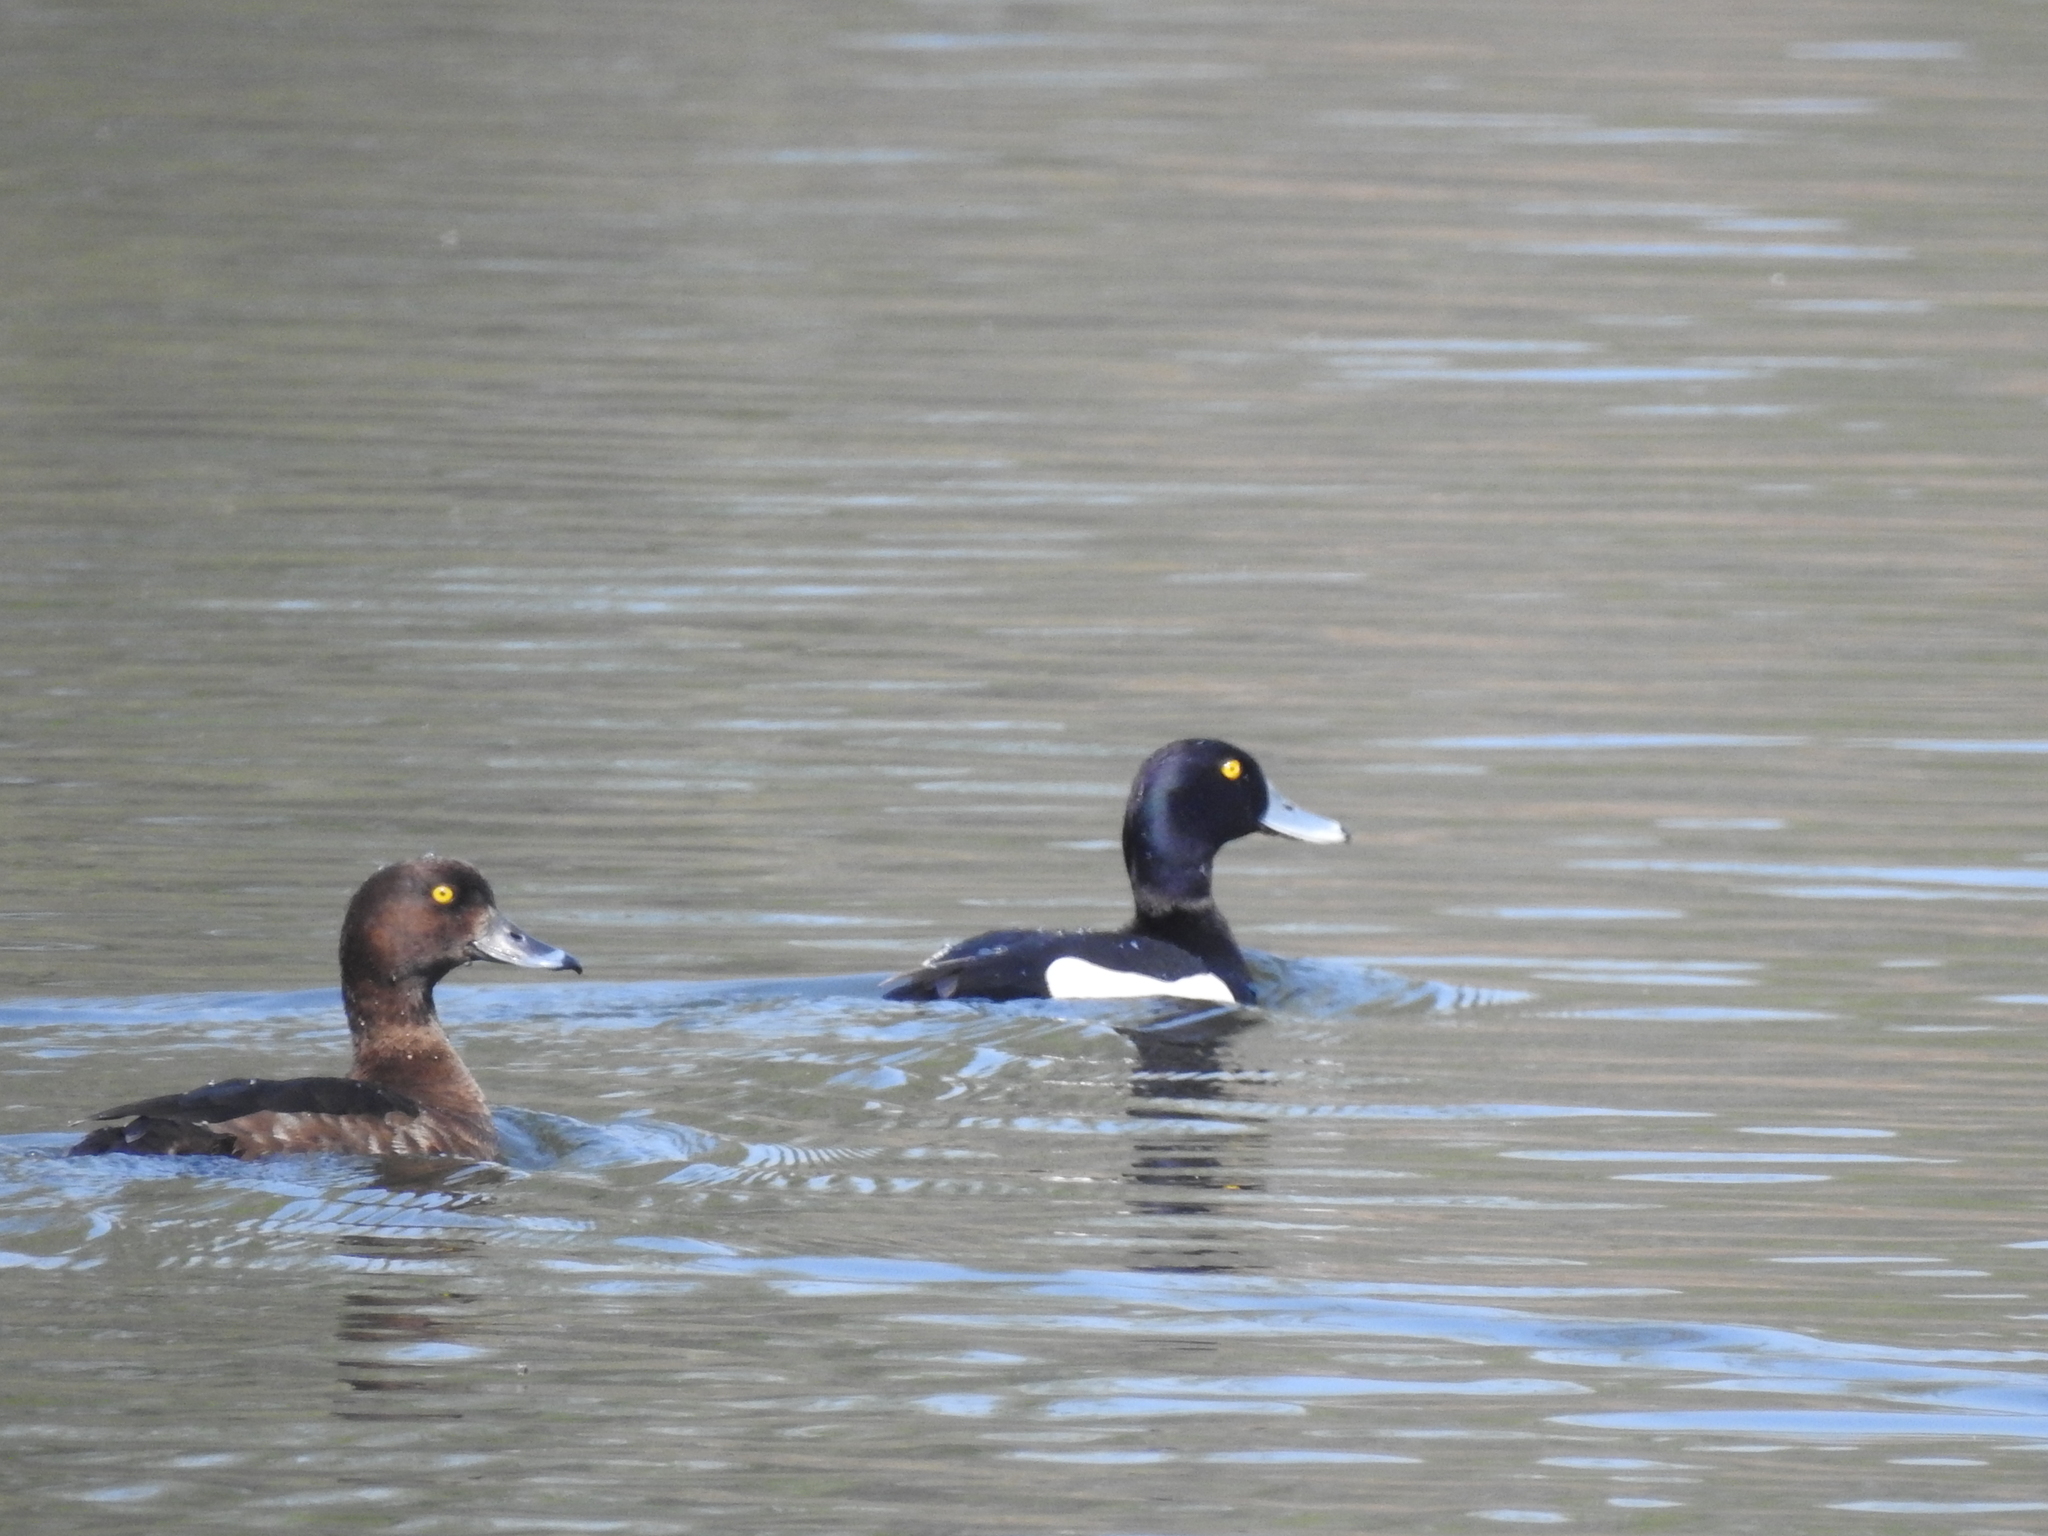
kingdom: Animalia
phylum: Chordata
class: Aves
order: Anseriformes
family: Anatidae
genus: Aythya
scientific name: Aythya fuligula
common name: Tufted duck
